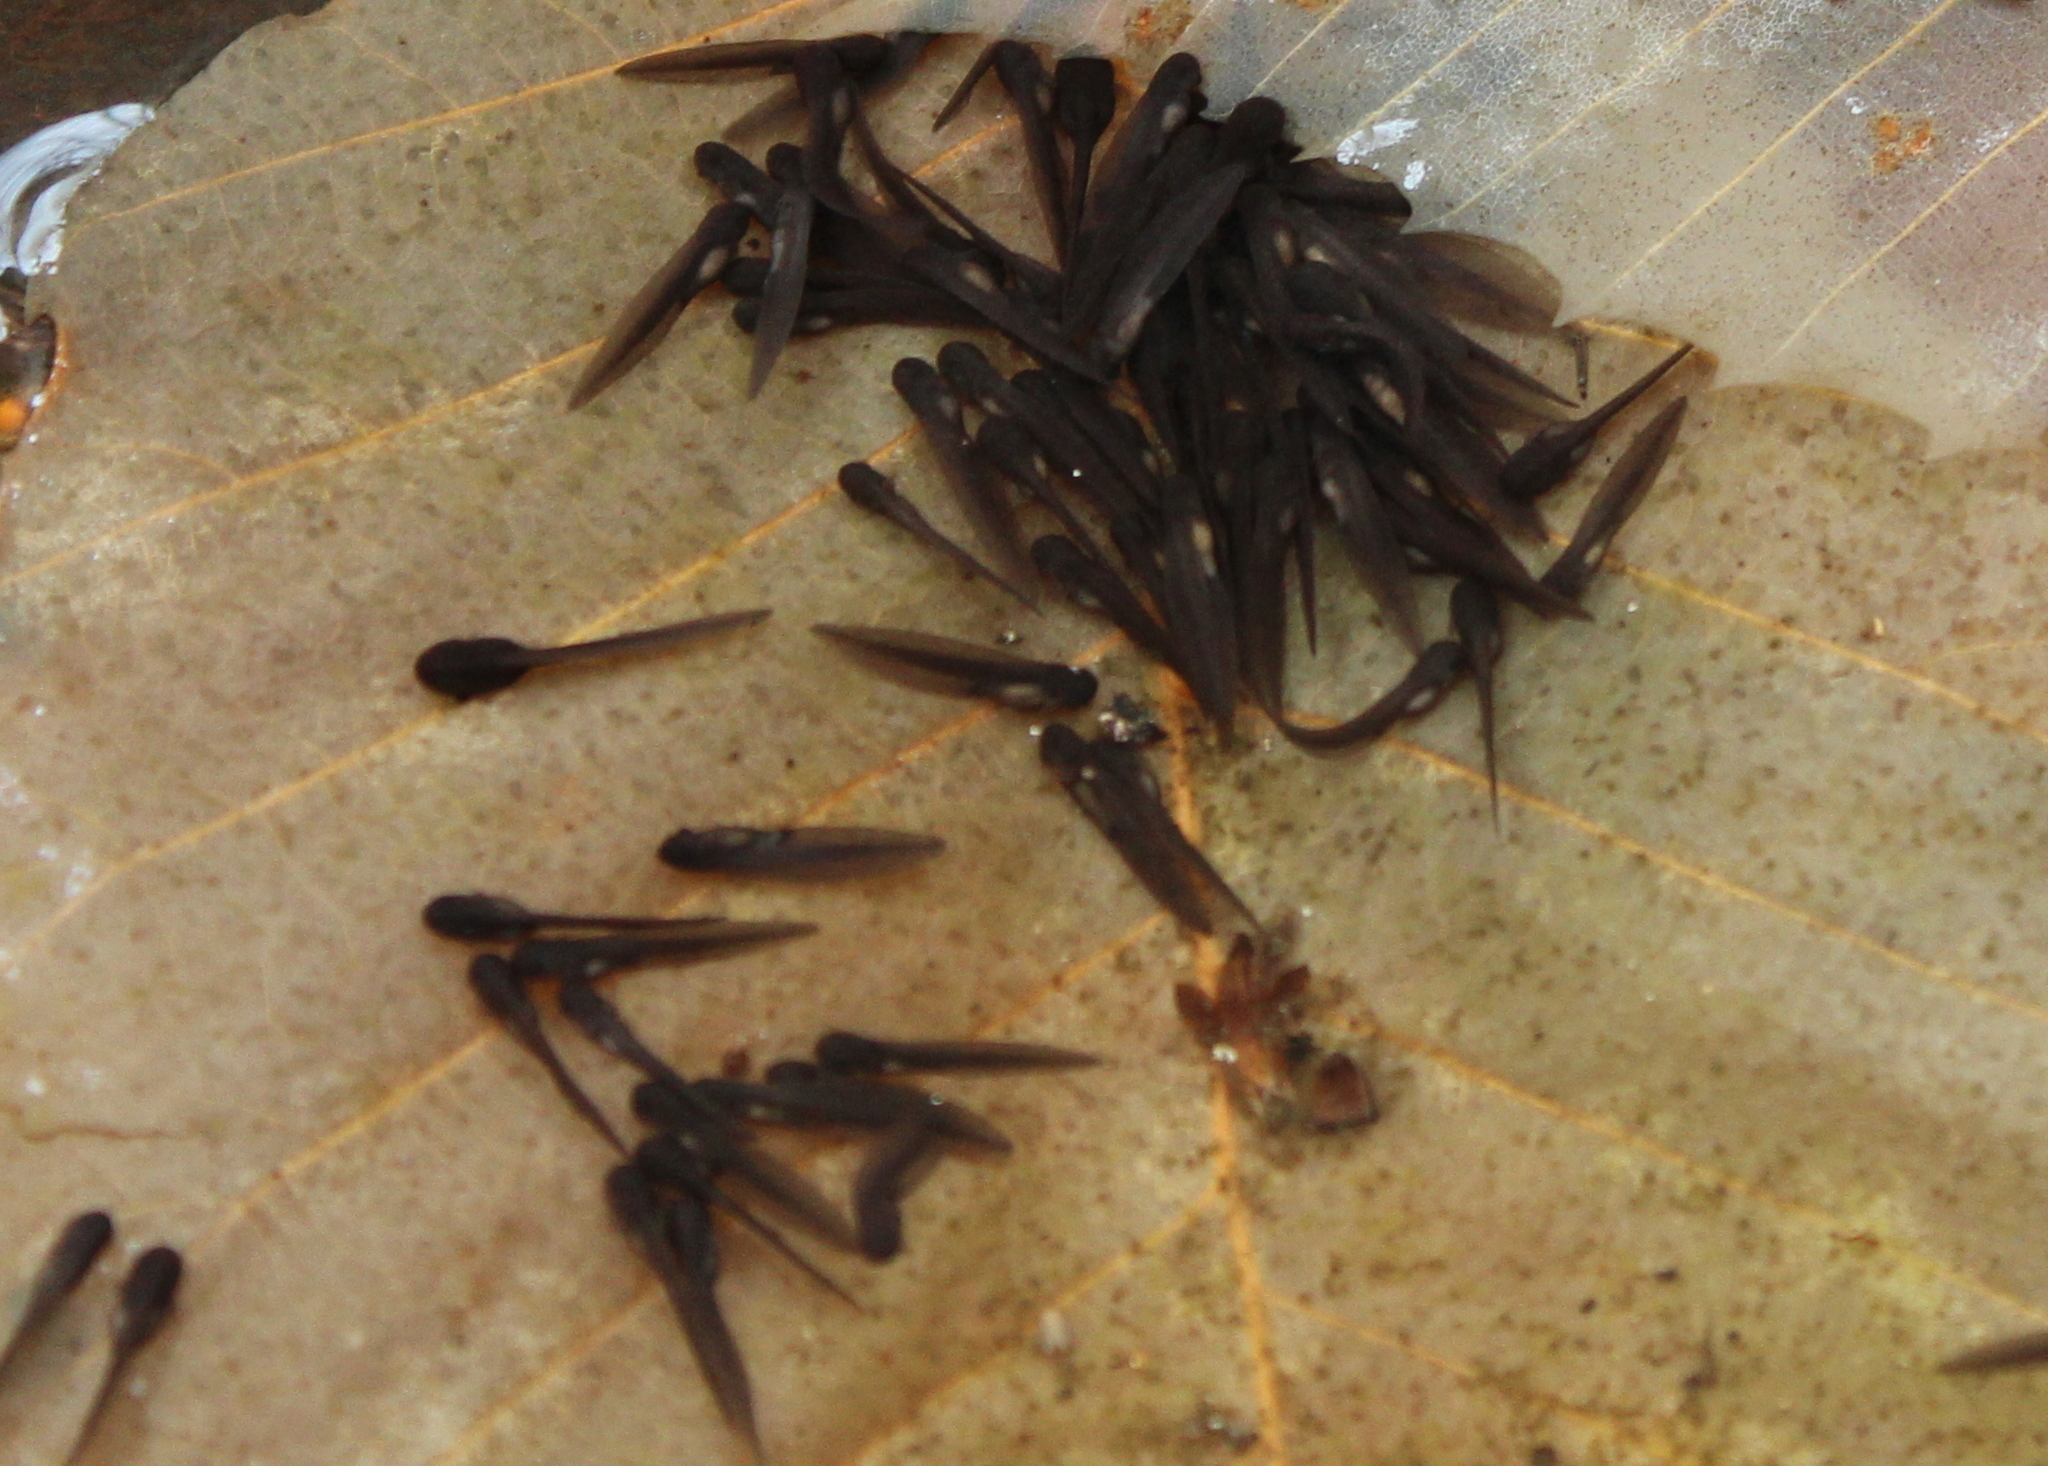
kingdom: Animalia
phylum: Chordata
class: Amphibia
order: Anura
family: Ranidae
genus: Lithobates
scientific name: Lithobates sylvaticus
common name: Wood frog
